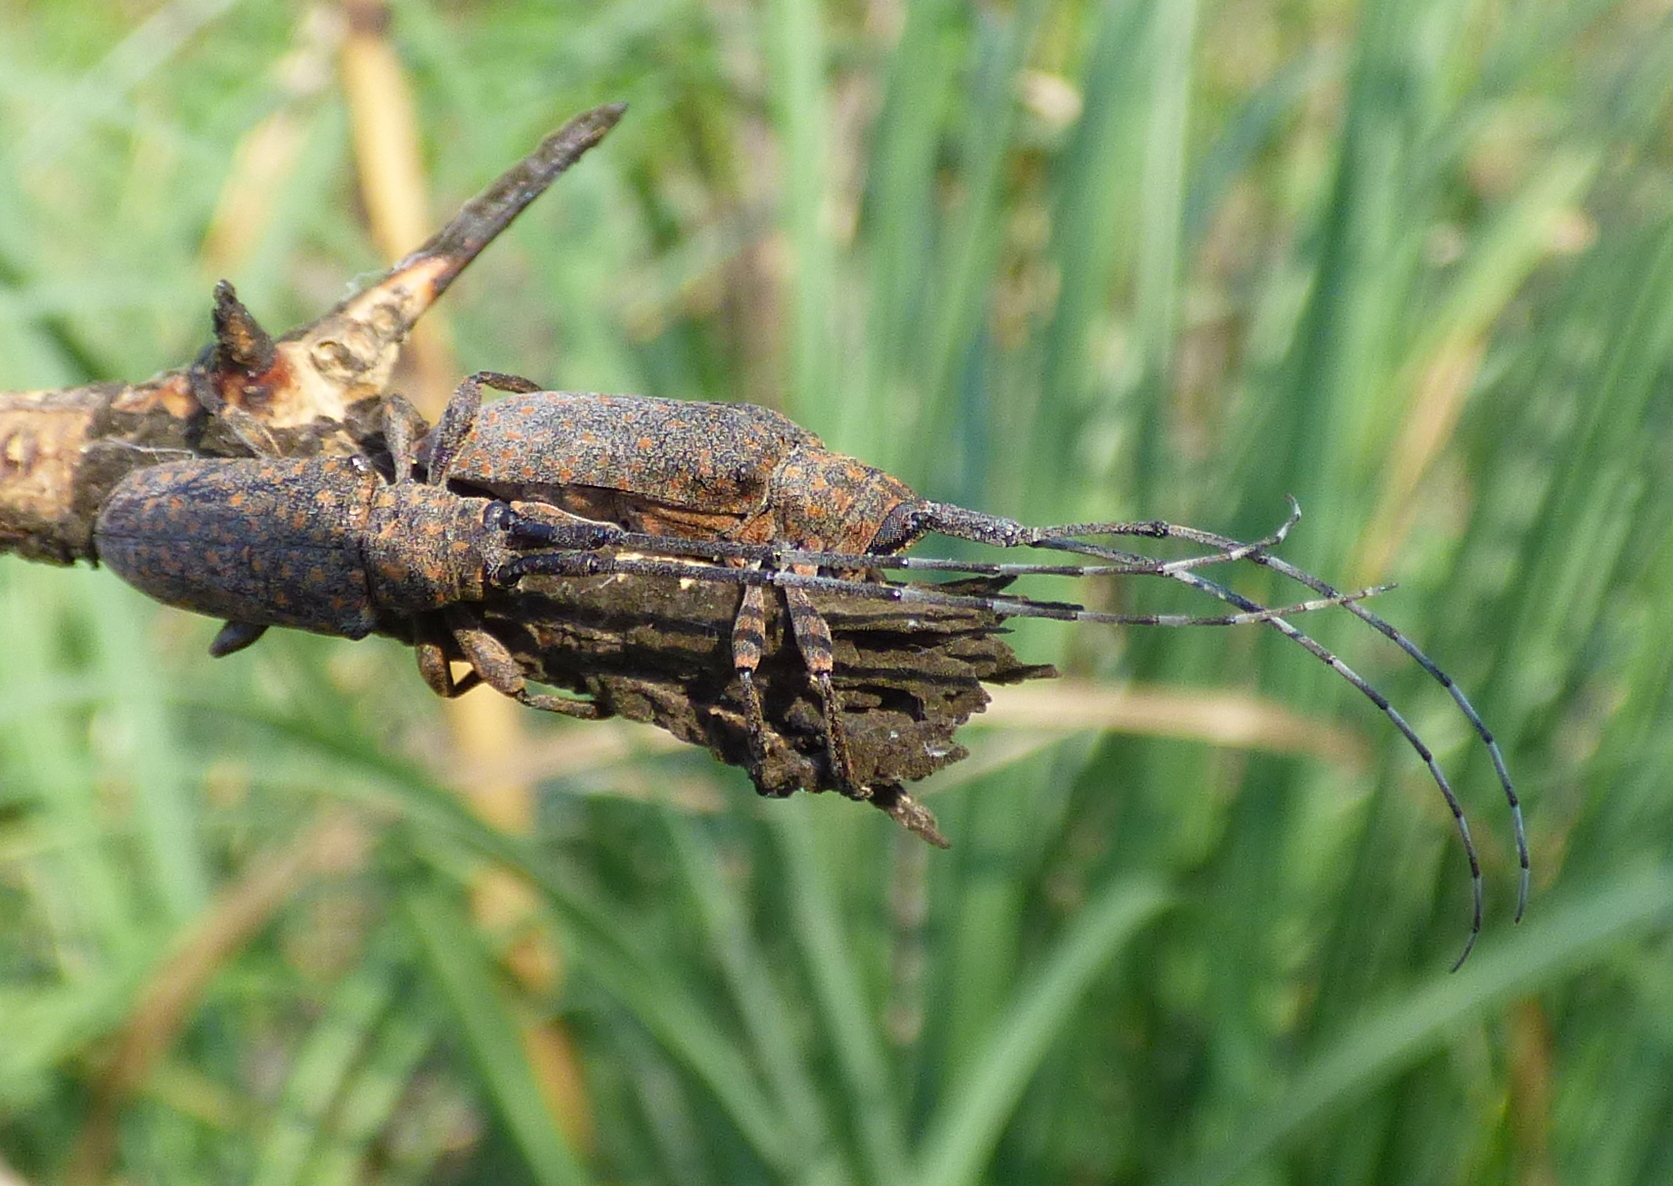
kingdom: Animalia
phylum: Arthropoda
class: Insecta
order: Coleoptera
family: Cerambycidae
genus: Peritrox
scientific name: Peritrox denticollis
